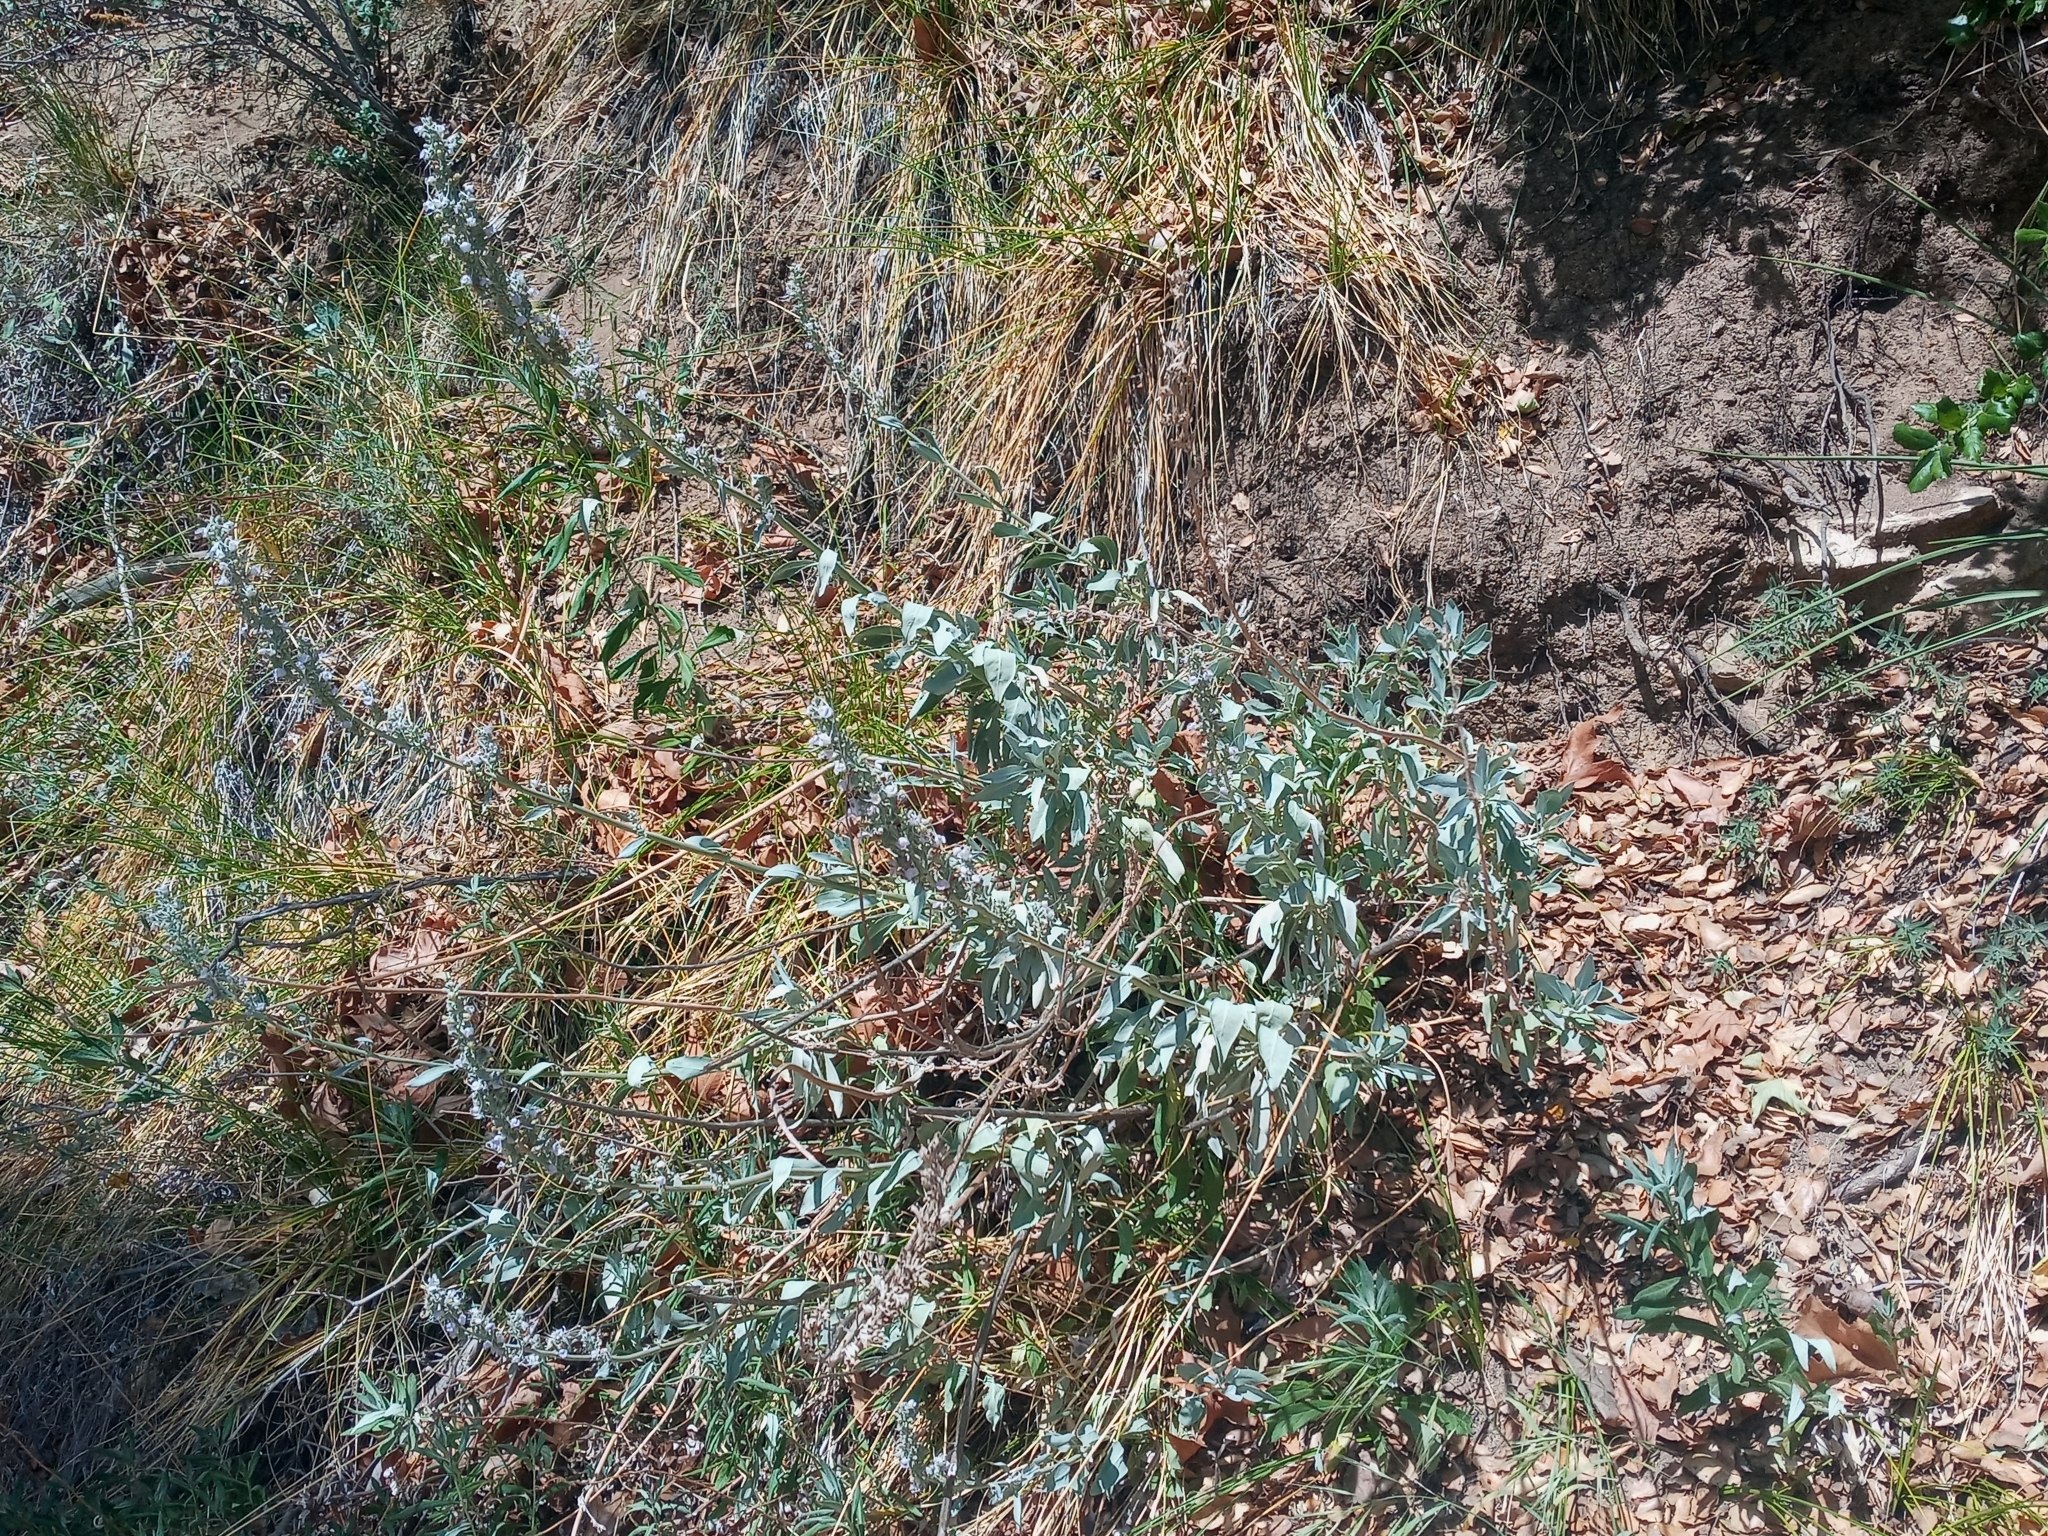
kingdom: Plantae
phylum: Tracheophyta
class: Magnoliopsida
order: Lamiales
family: Lamiaceae
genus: Salvia
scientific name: Salvia apiana
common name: White sage
